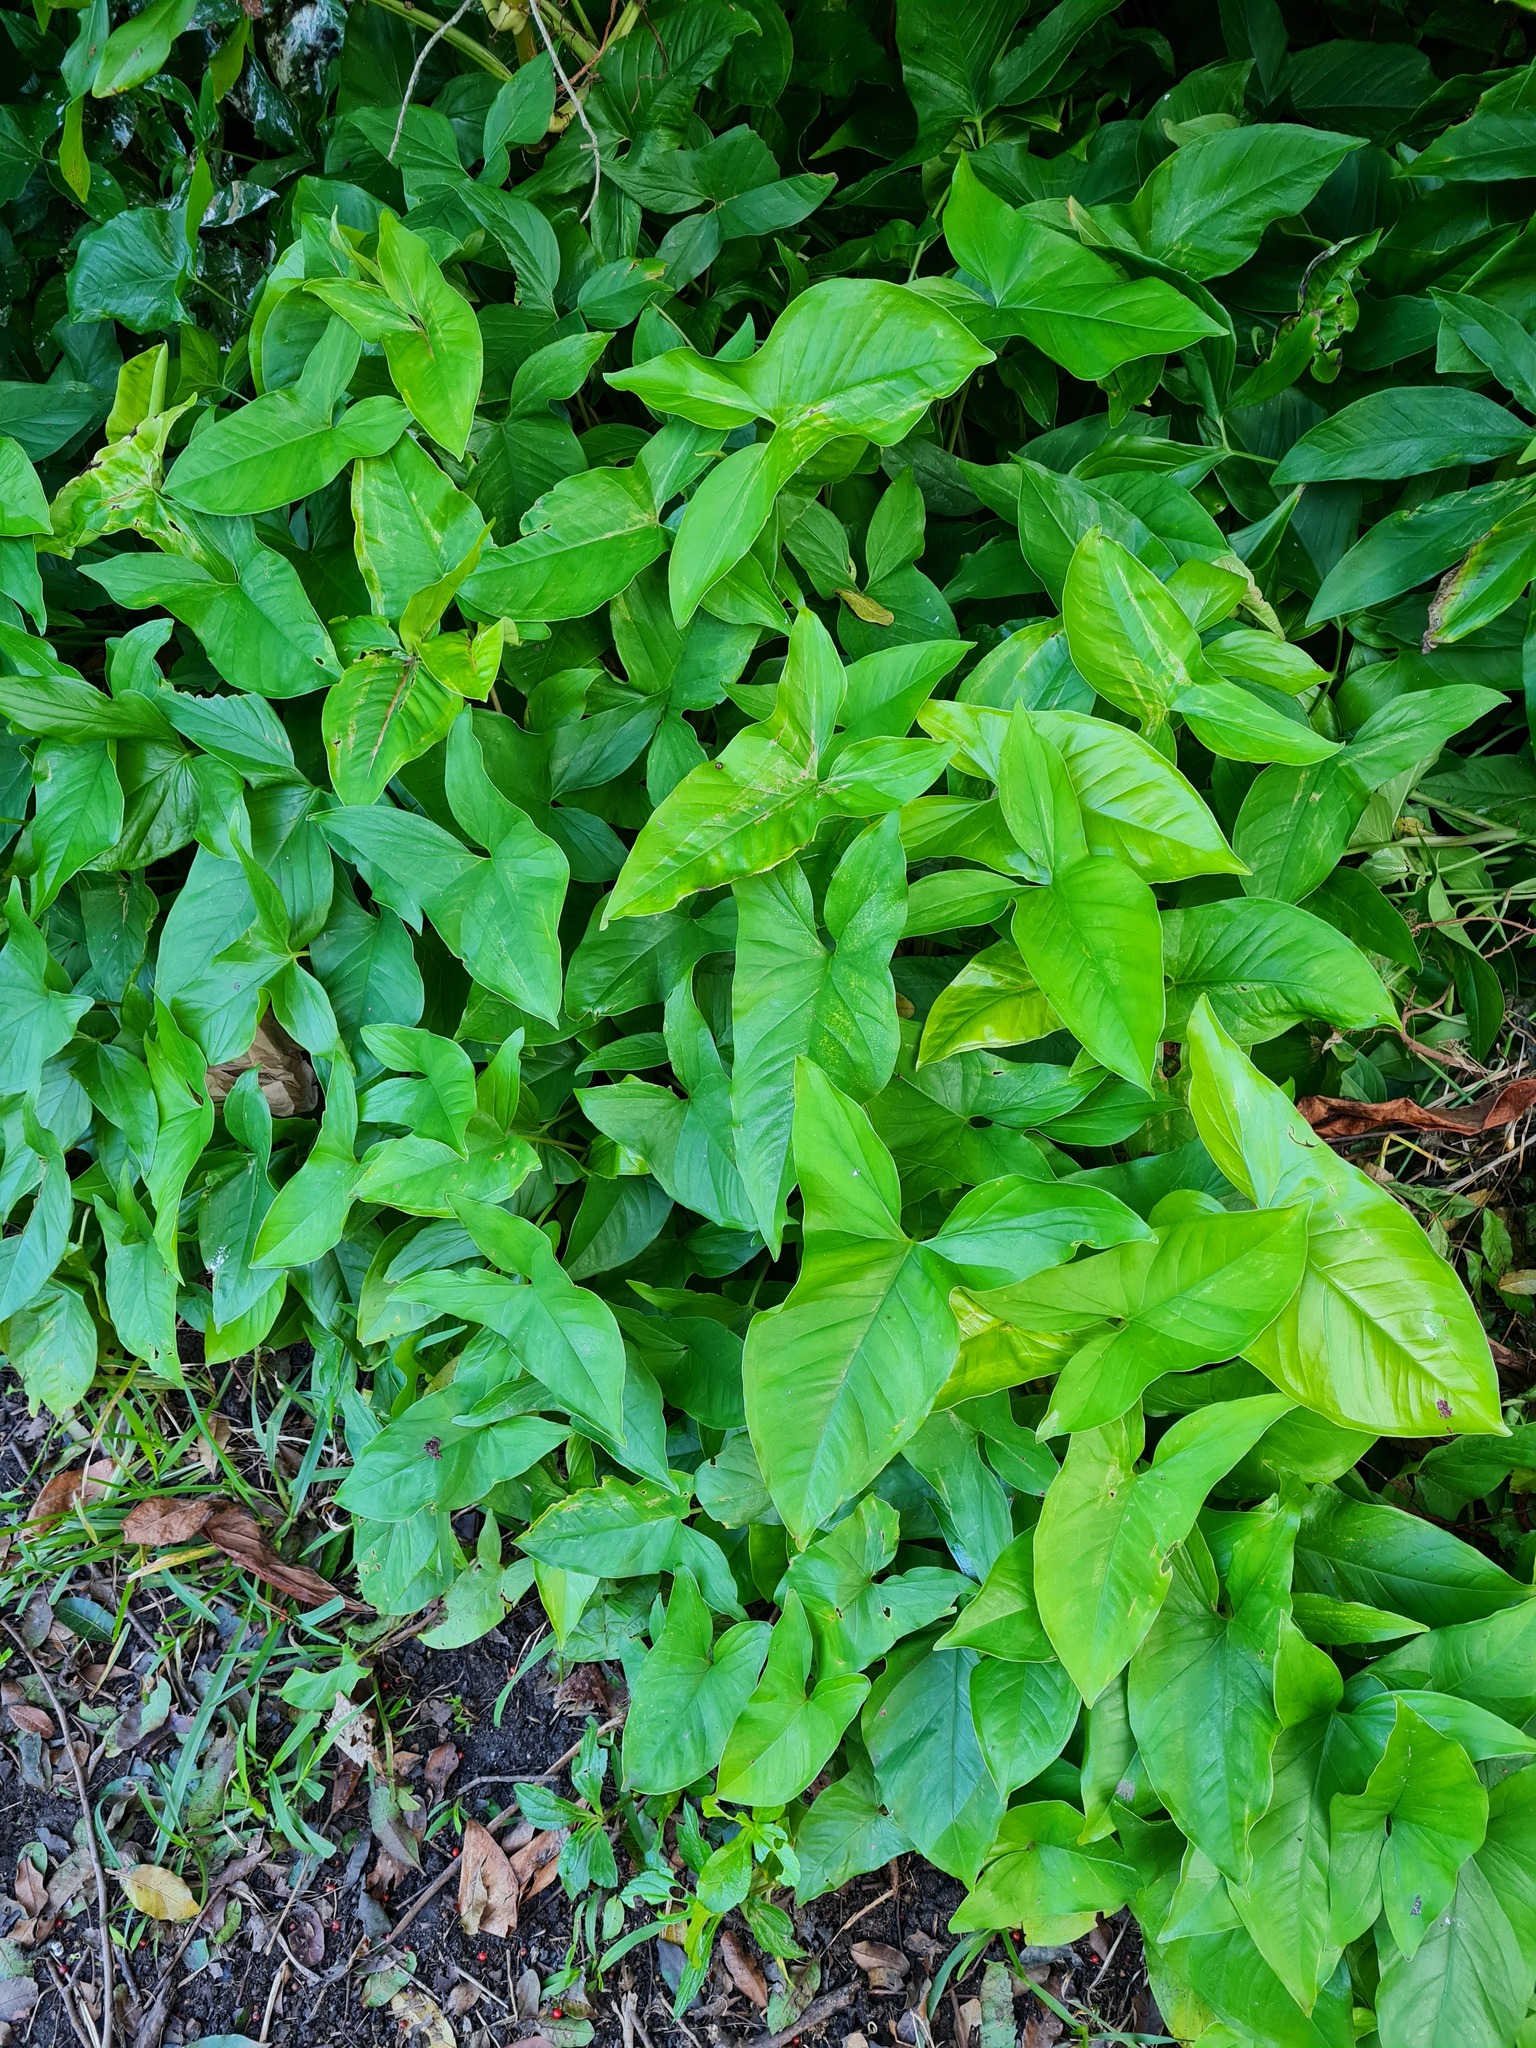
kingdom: Plantae
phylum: Tracheophyta
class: Liliopsida
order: Alismatales
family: Araceae
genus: Syngonium
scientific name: Syngonium podophyllum
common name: American evergreen
